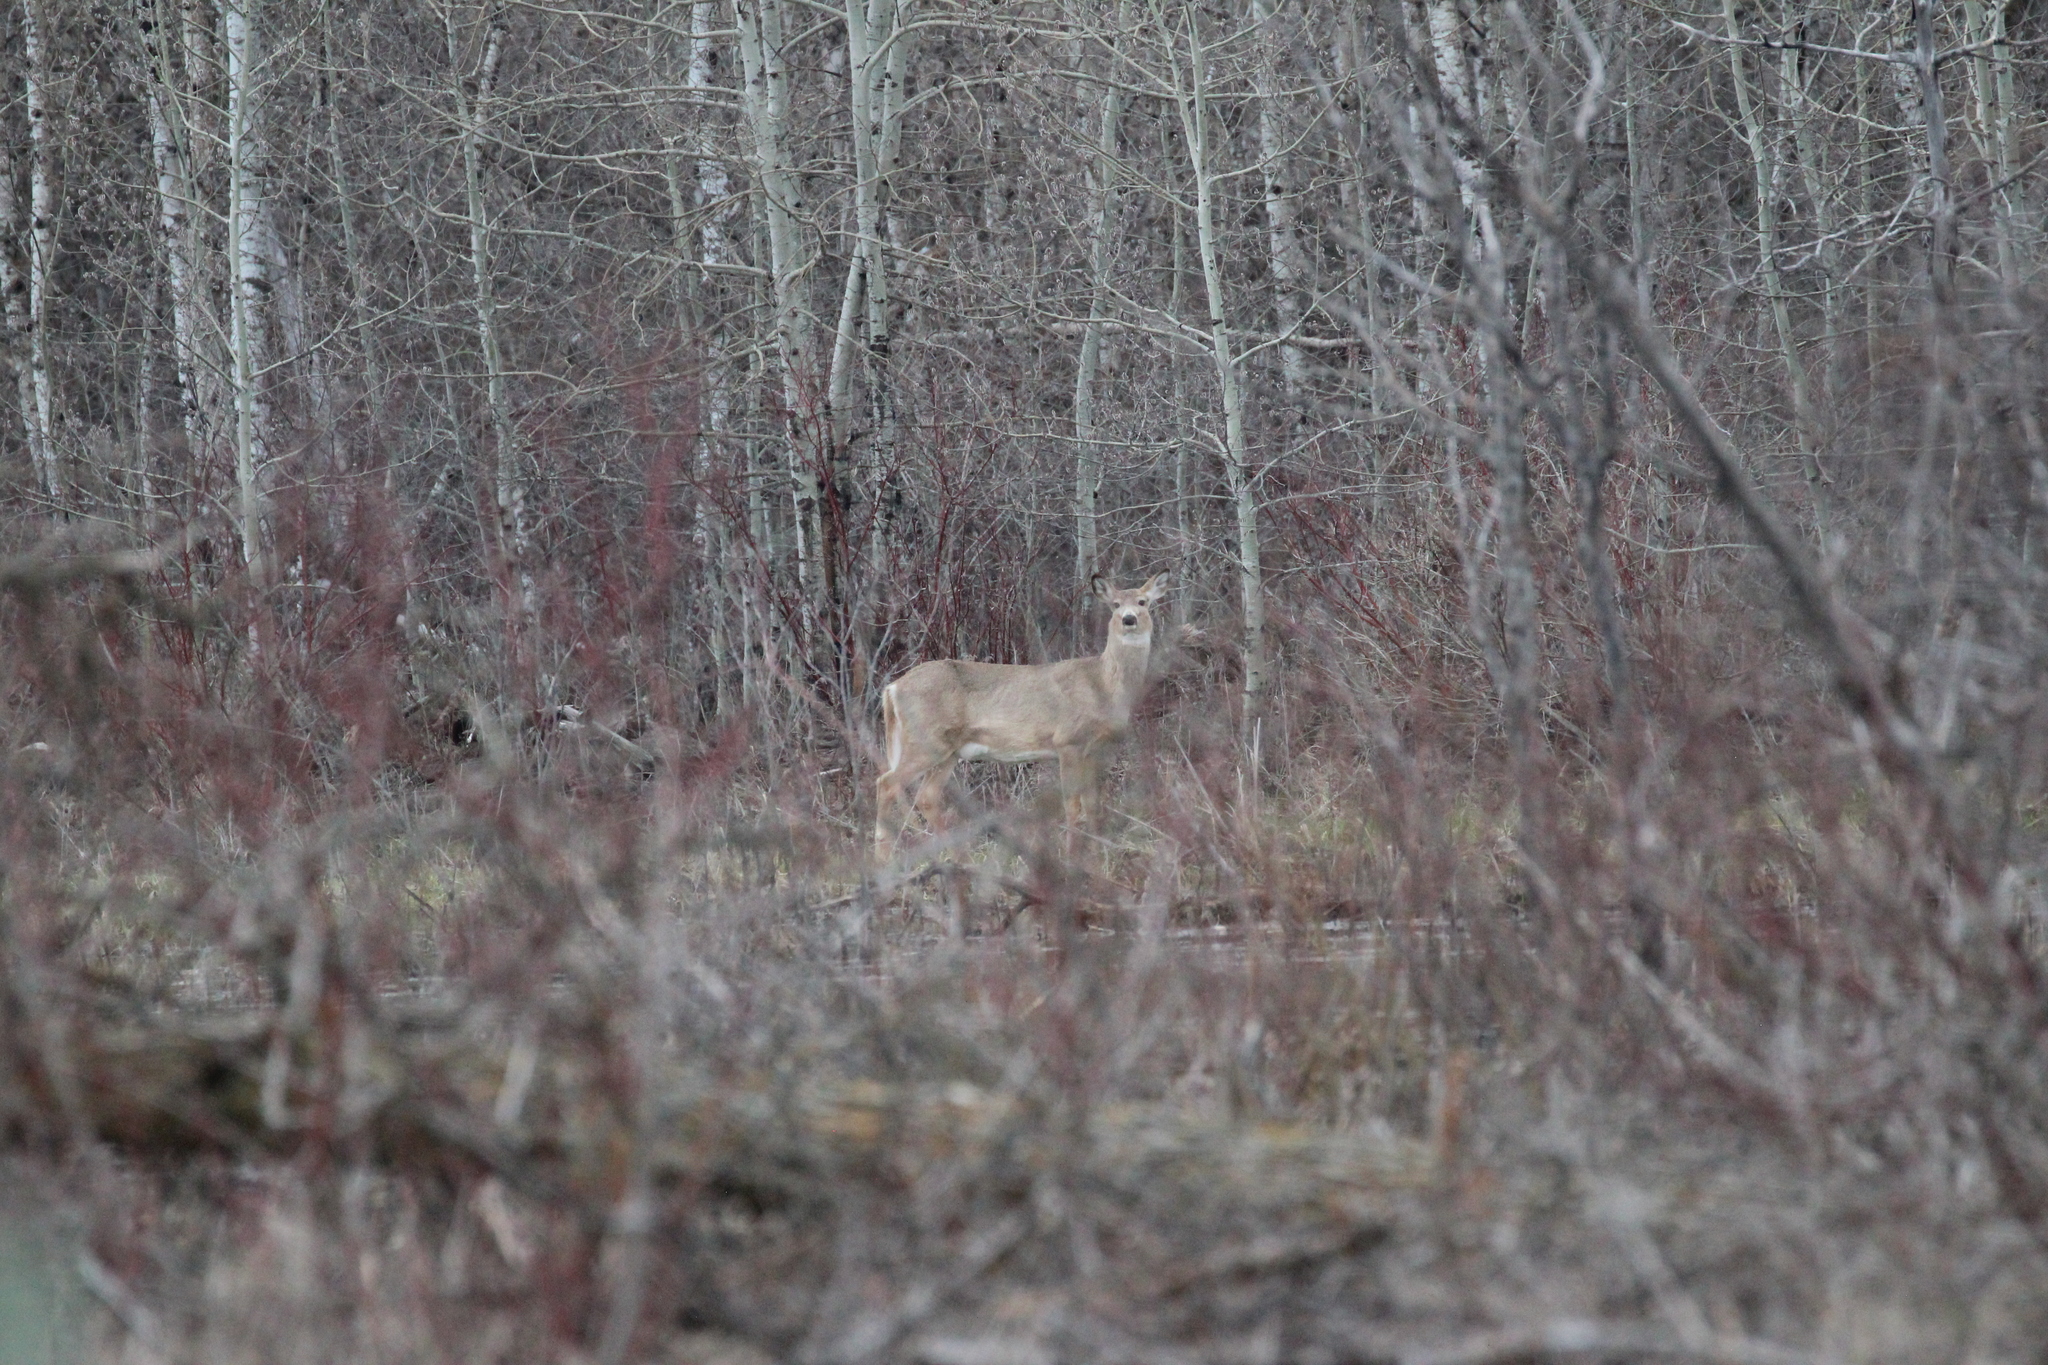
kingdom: Animalia
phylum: Chordata
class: Mammalia
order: Artiodactyla
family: Cervidae
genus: Odocoileus
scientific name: Odocoileus virginianus
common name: White-tailed deer
